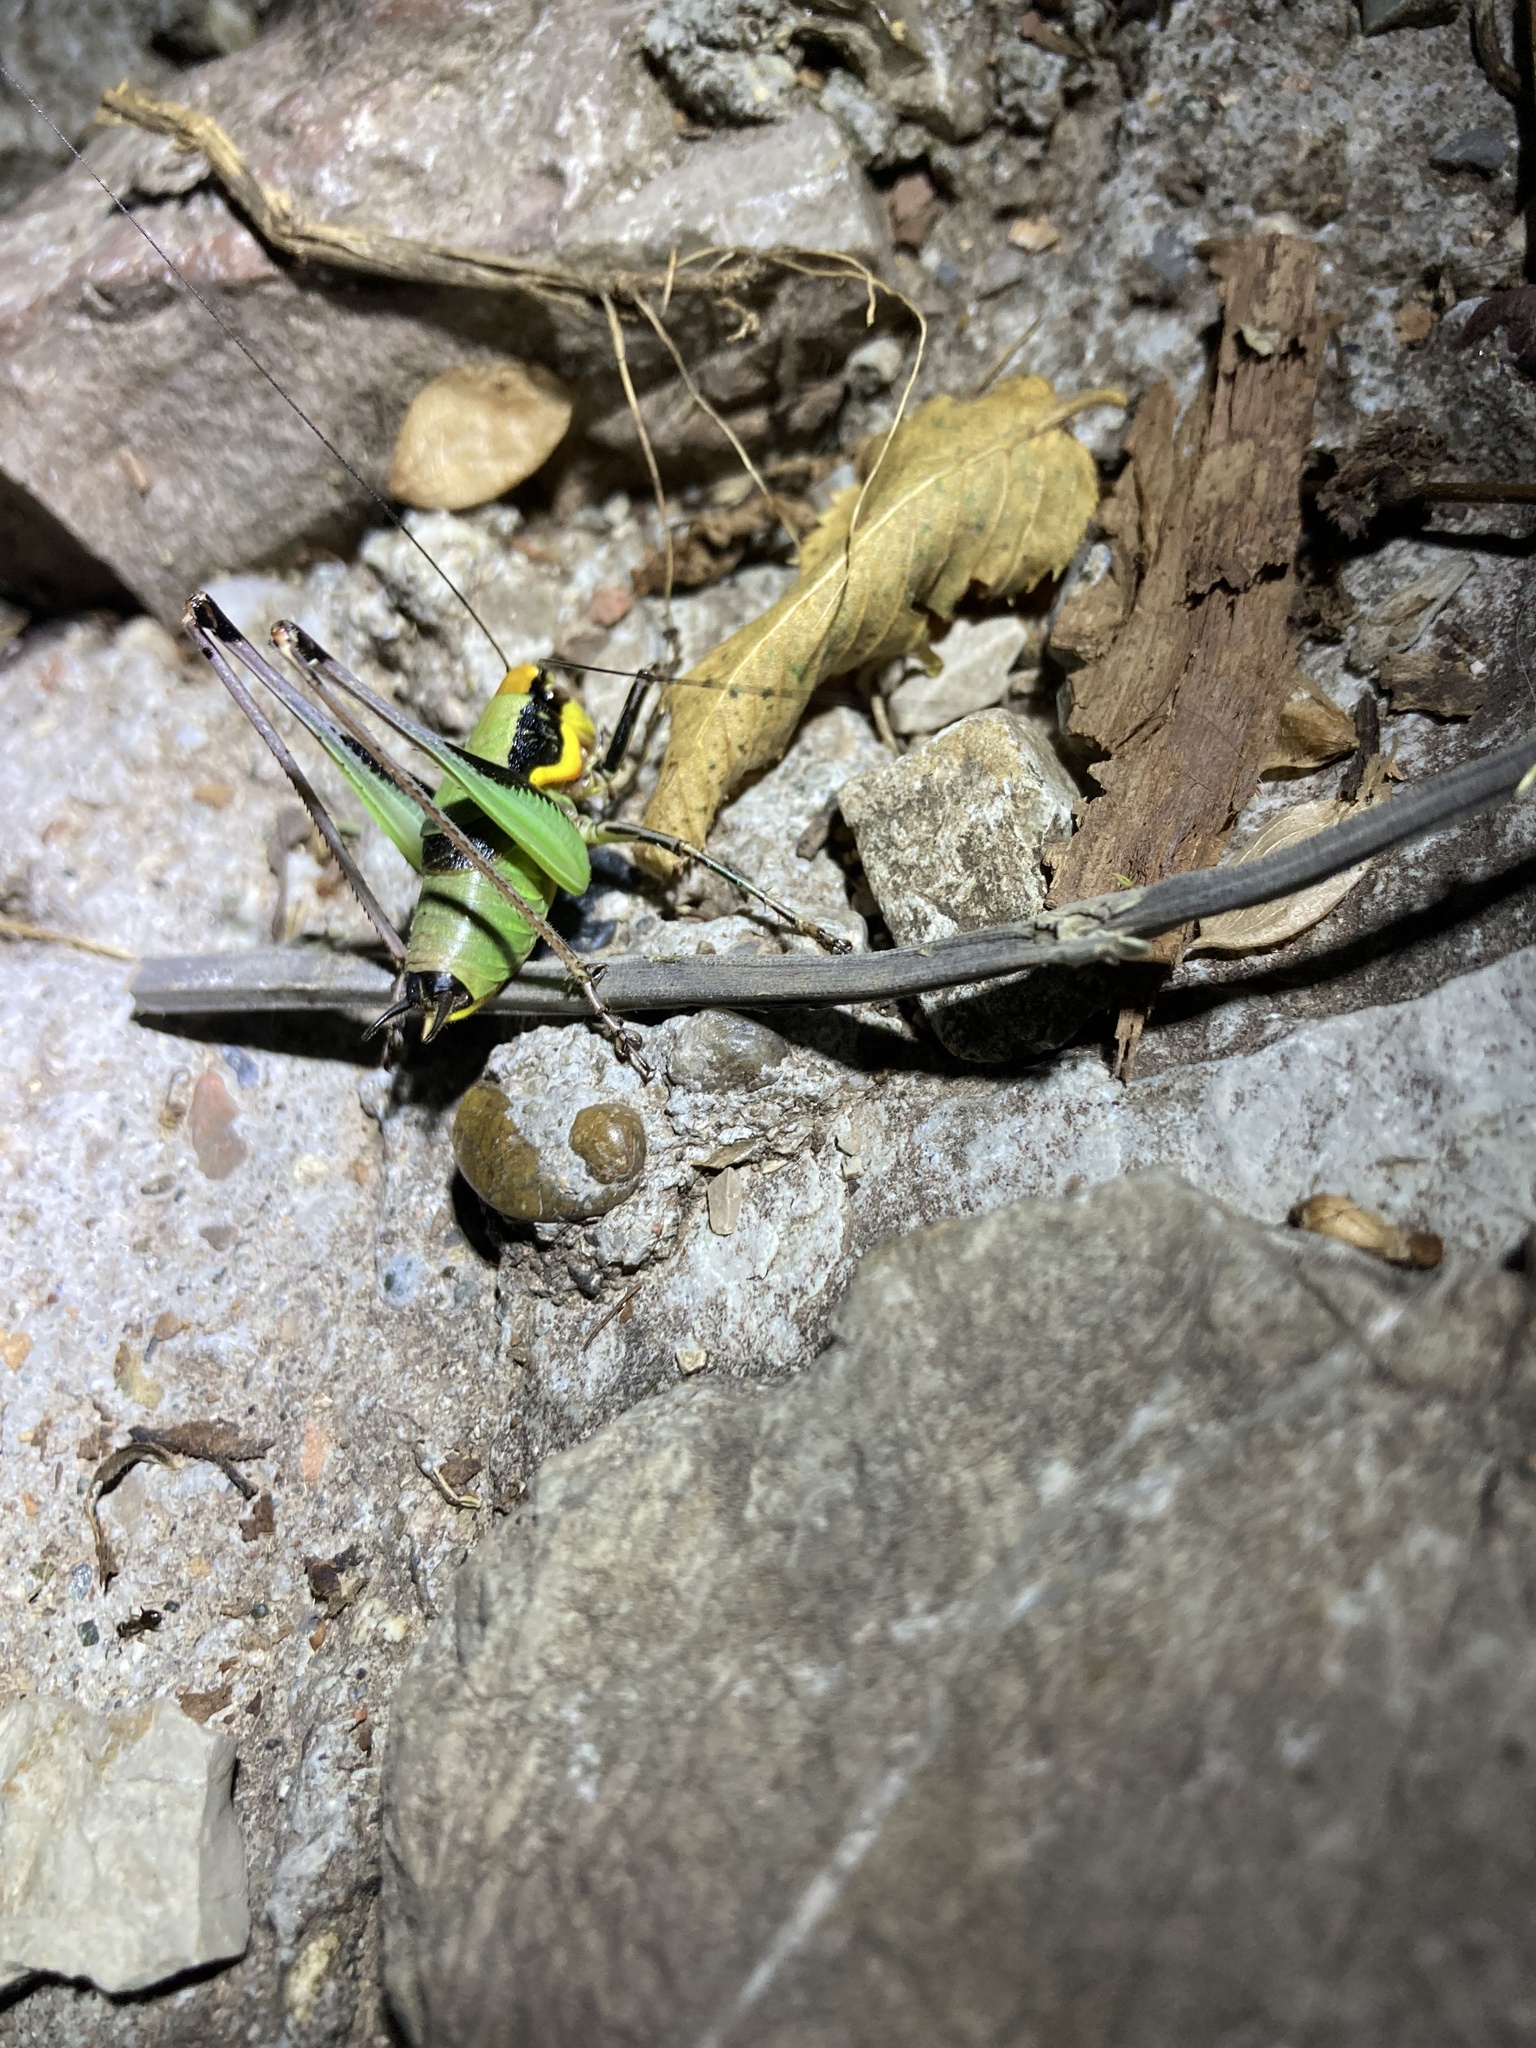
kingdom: Animalia
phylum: Arthropoda
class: Insecta
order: Orthoptera
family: Tettigoniidae
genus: Eupholidoptera
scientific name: Eupholidoptera chabrieri
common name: Chabrier's marbled bush-cricket
